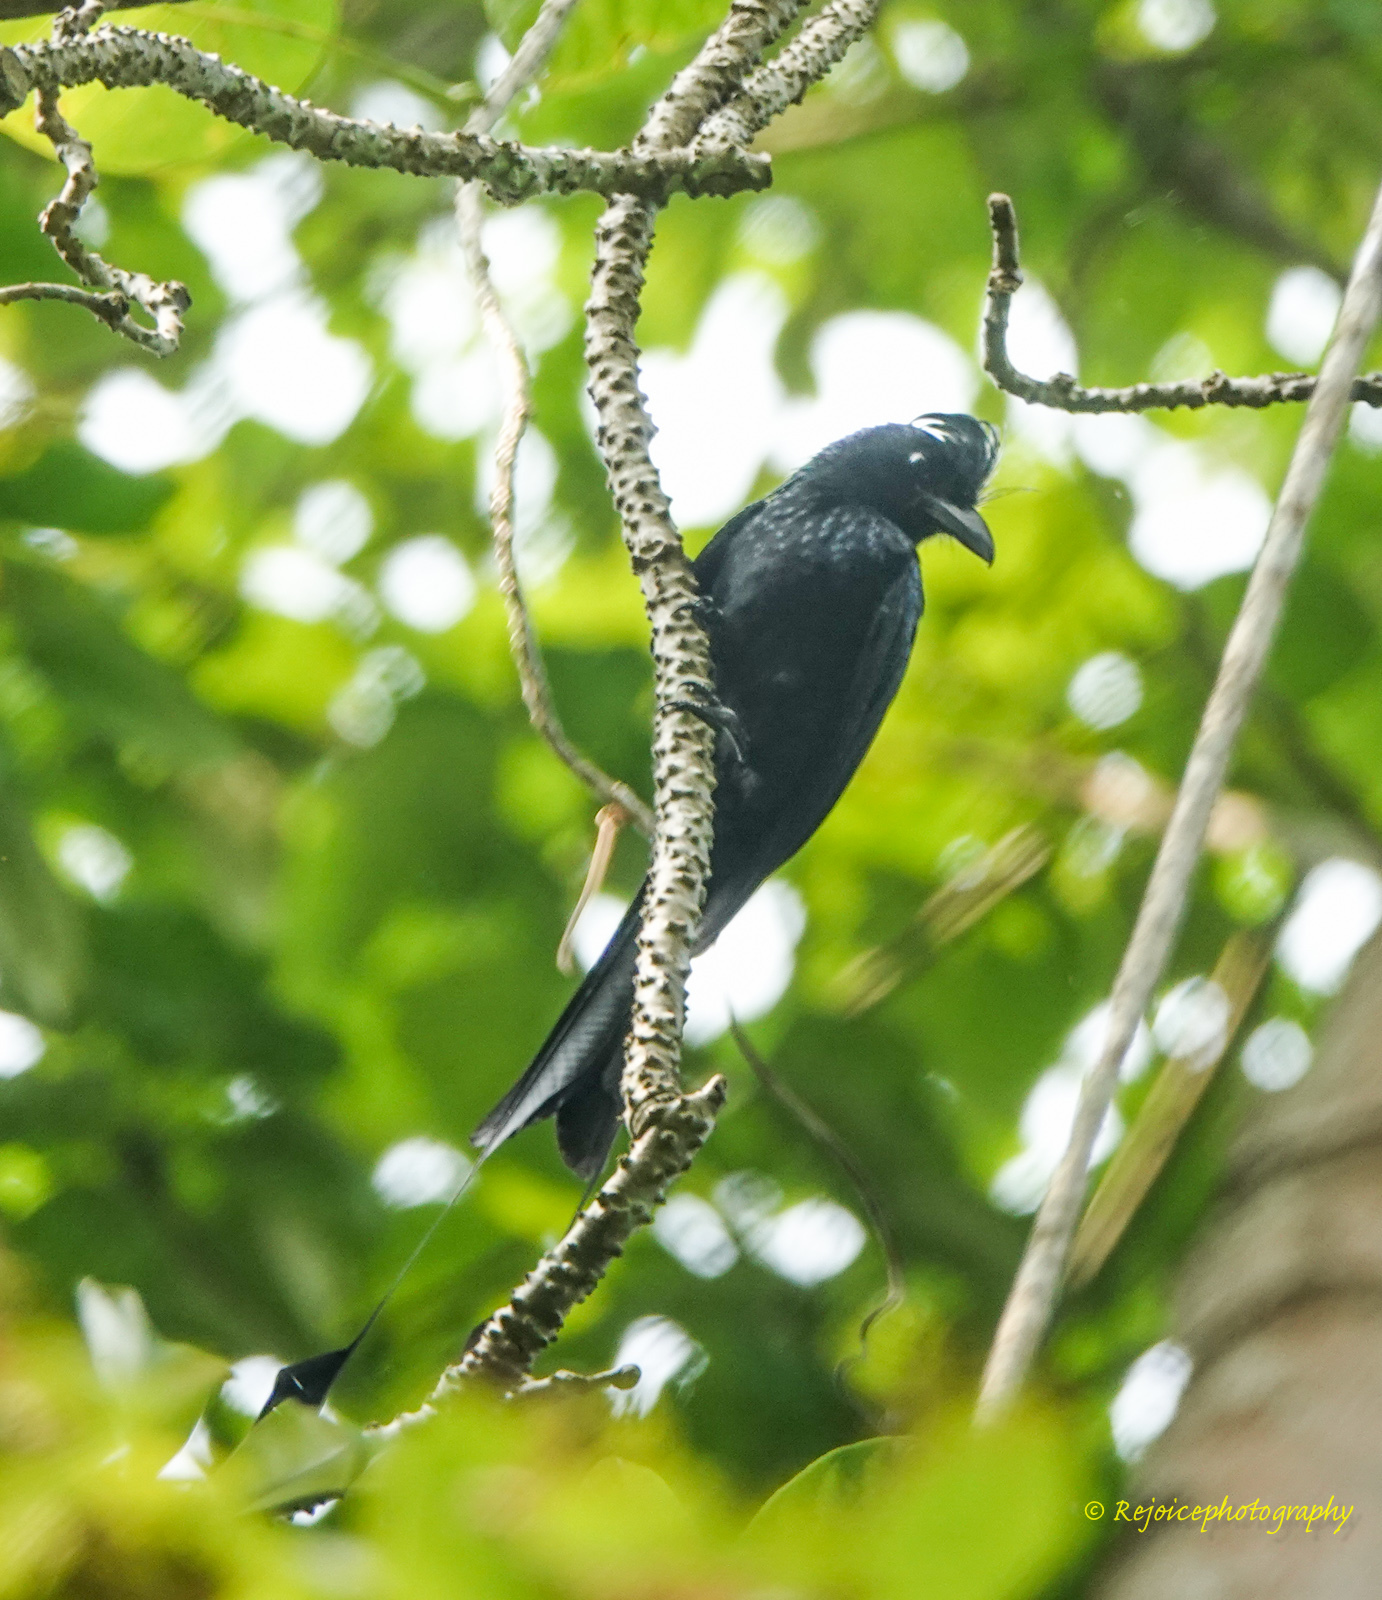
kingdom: Animalia
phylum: Chordata
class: Aves
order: Passeriformes
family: Dicruridae
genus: Dicrurus
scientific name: Dicrurus paradiseus
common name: Greater racket-tailed drongo
